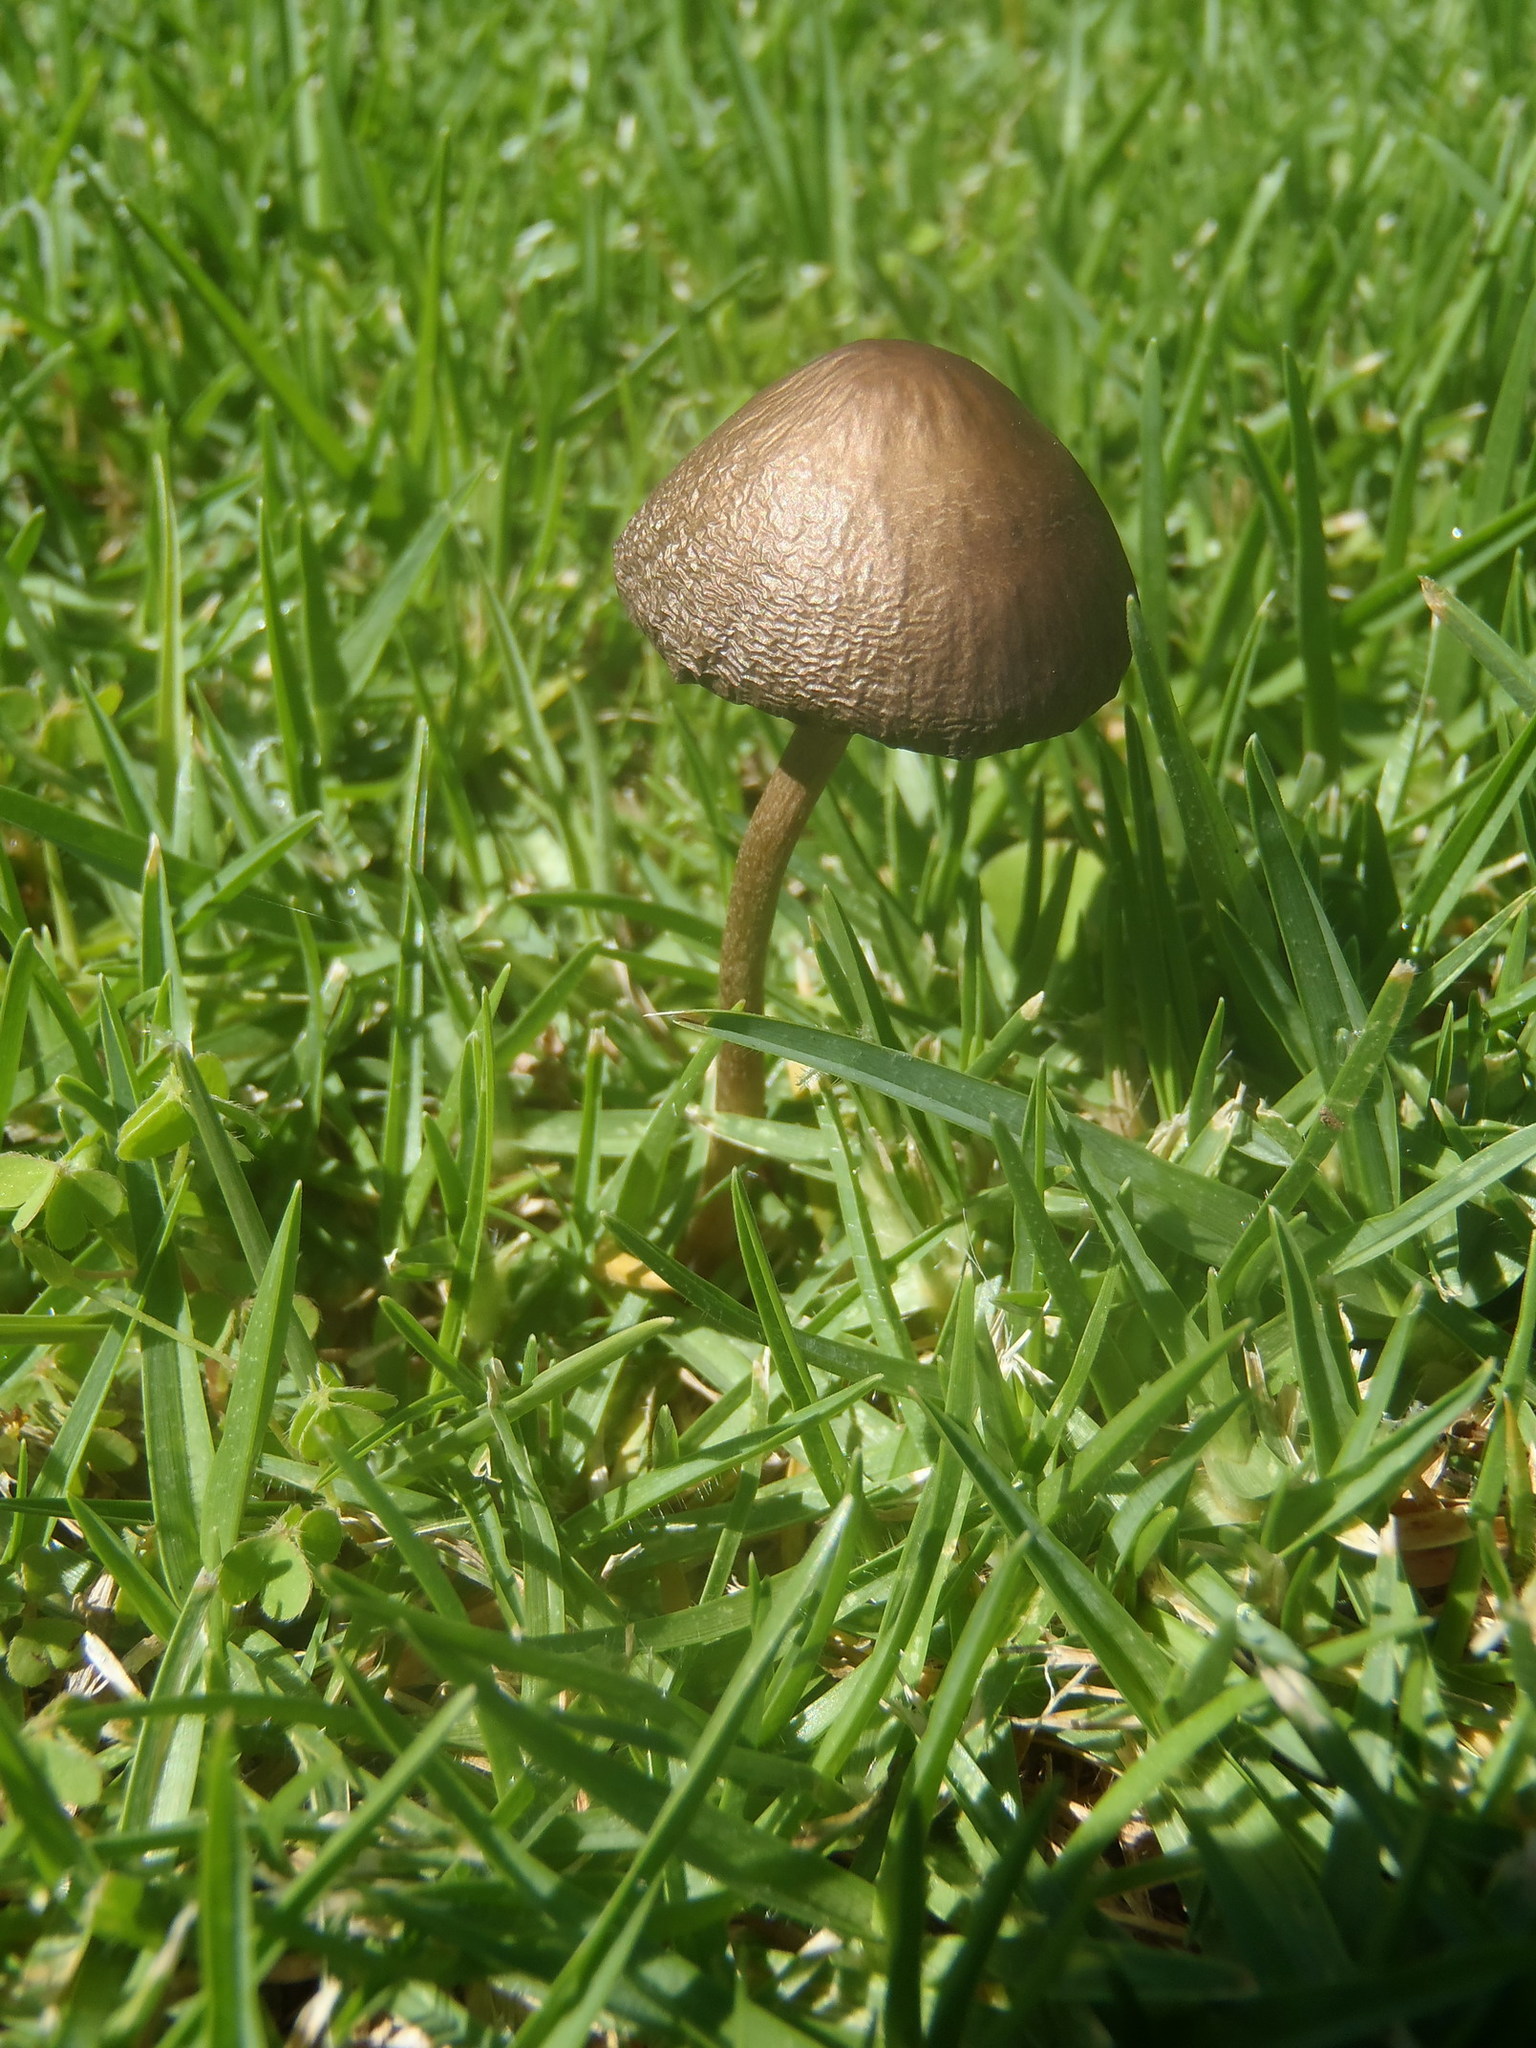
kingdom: Fungi
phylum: Basidiomycota
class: Agaricomycetes
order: Agaricales
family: Bolbitiaceae
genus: Panaeolina
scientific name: Panaeolina foenisecii
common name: Brown hay cap
